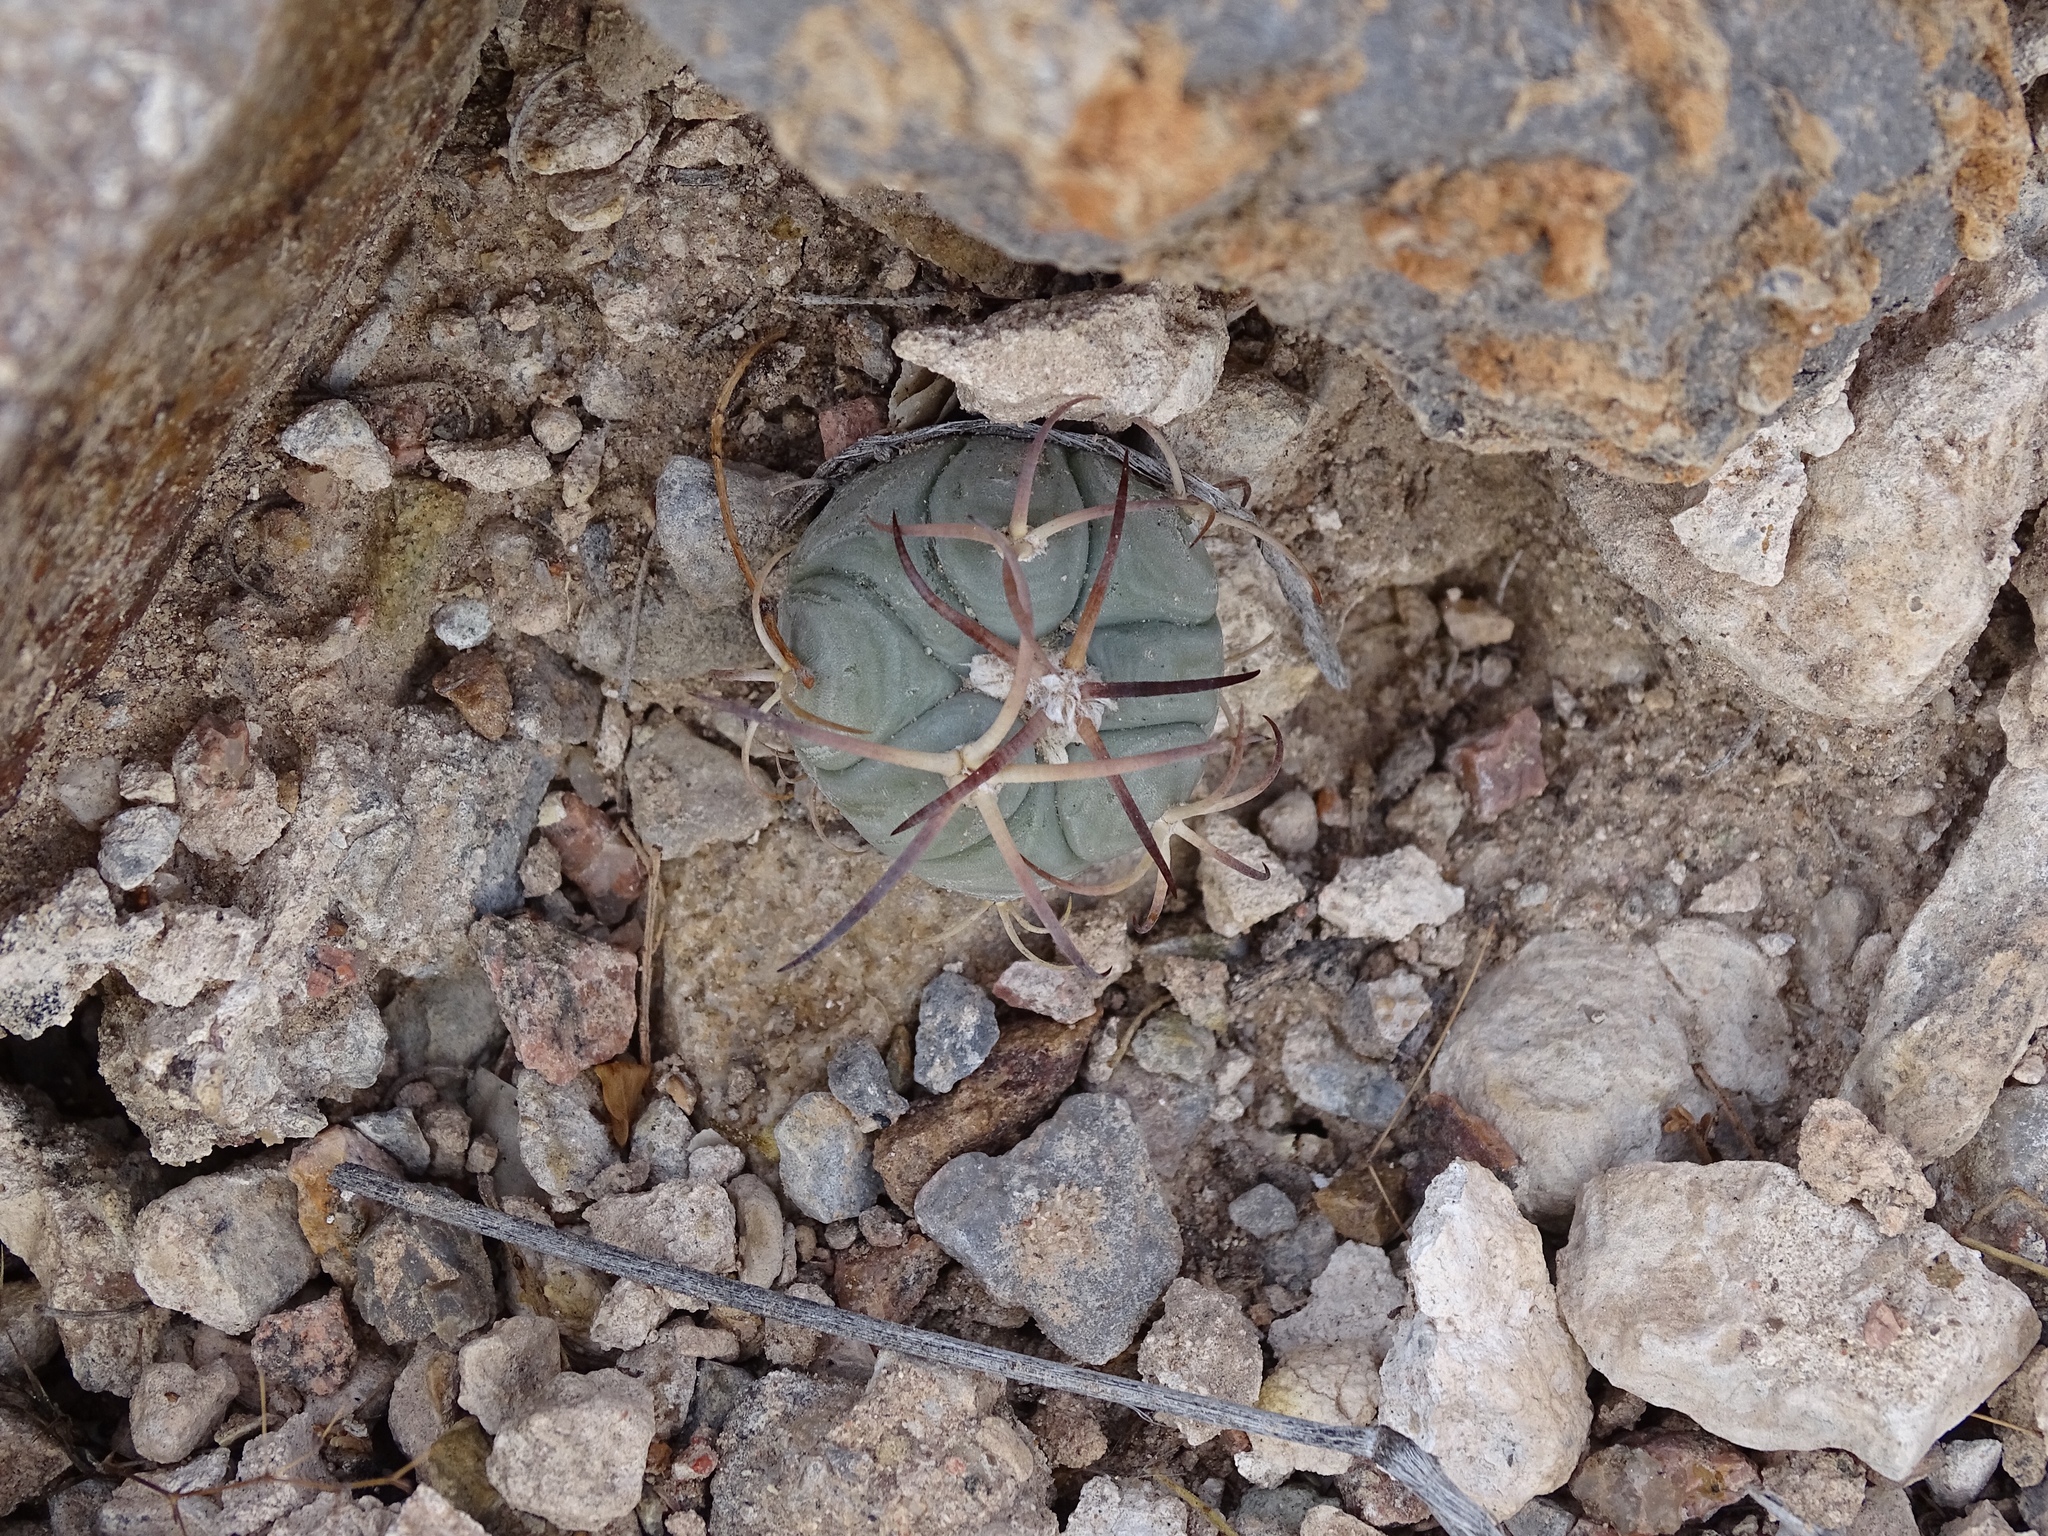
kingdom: Plantae
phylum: Tracheophyta
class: Magnoliopsida
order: Caryophyllales
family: Cactaceae
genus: Echinocactus
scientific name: Echinocactus horizonthalonius
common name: Devilshead
